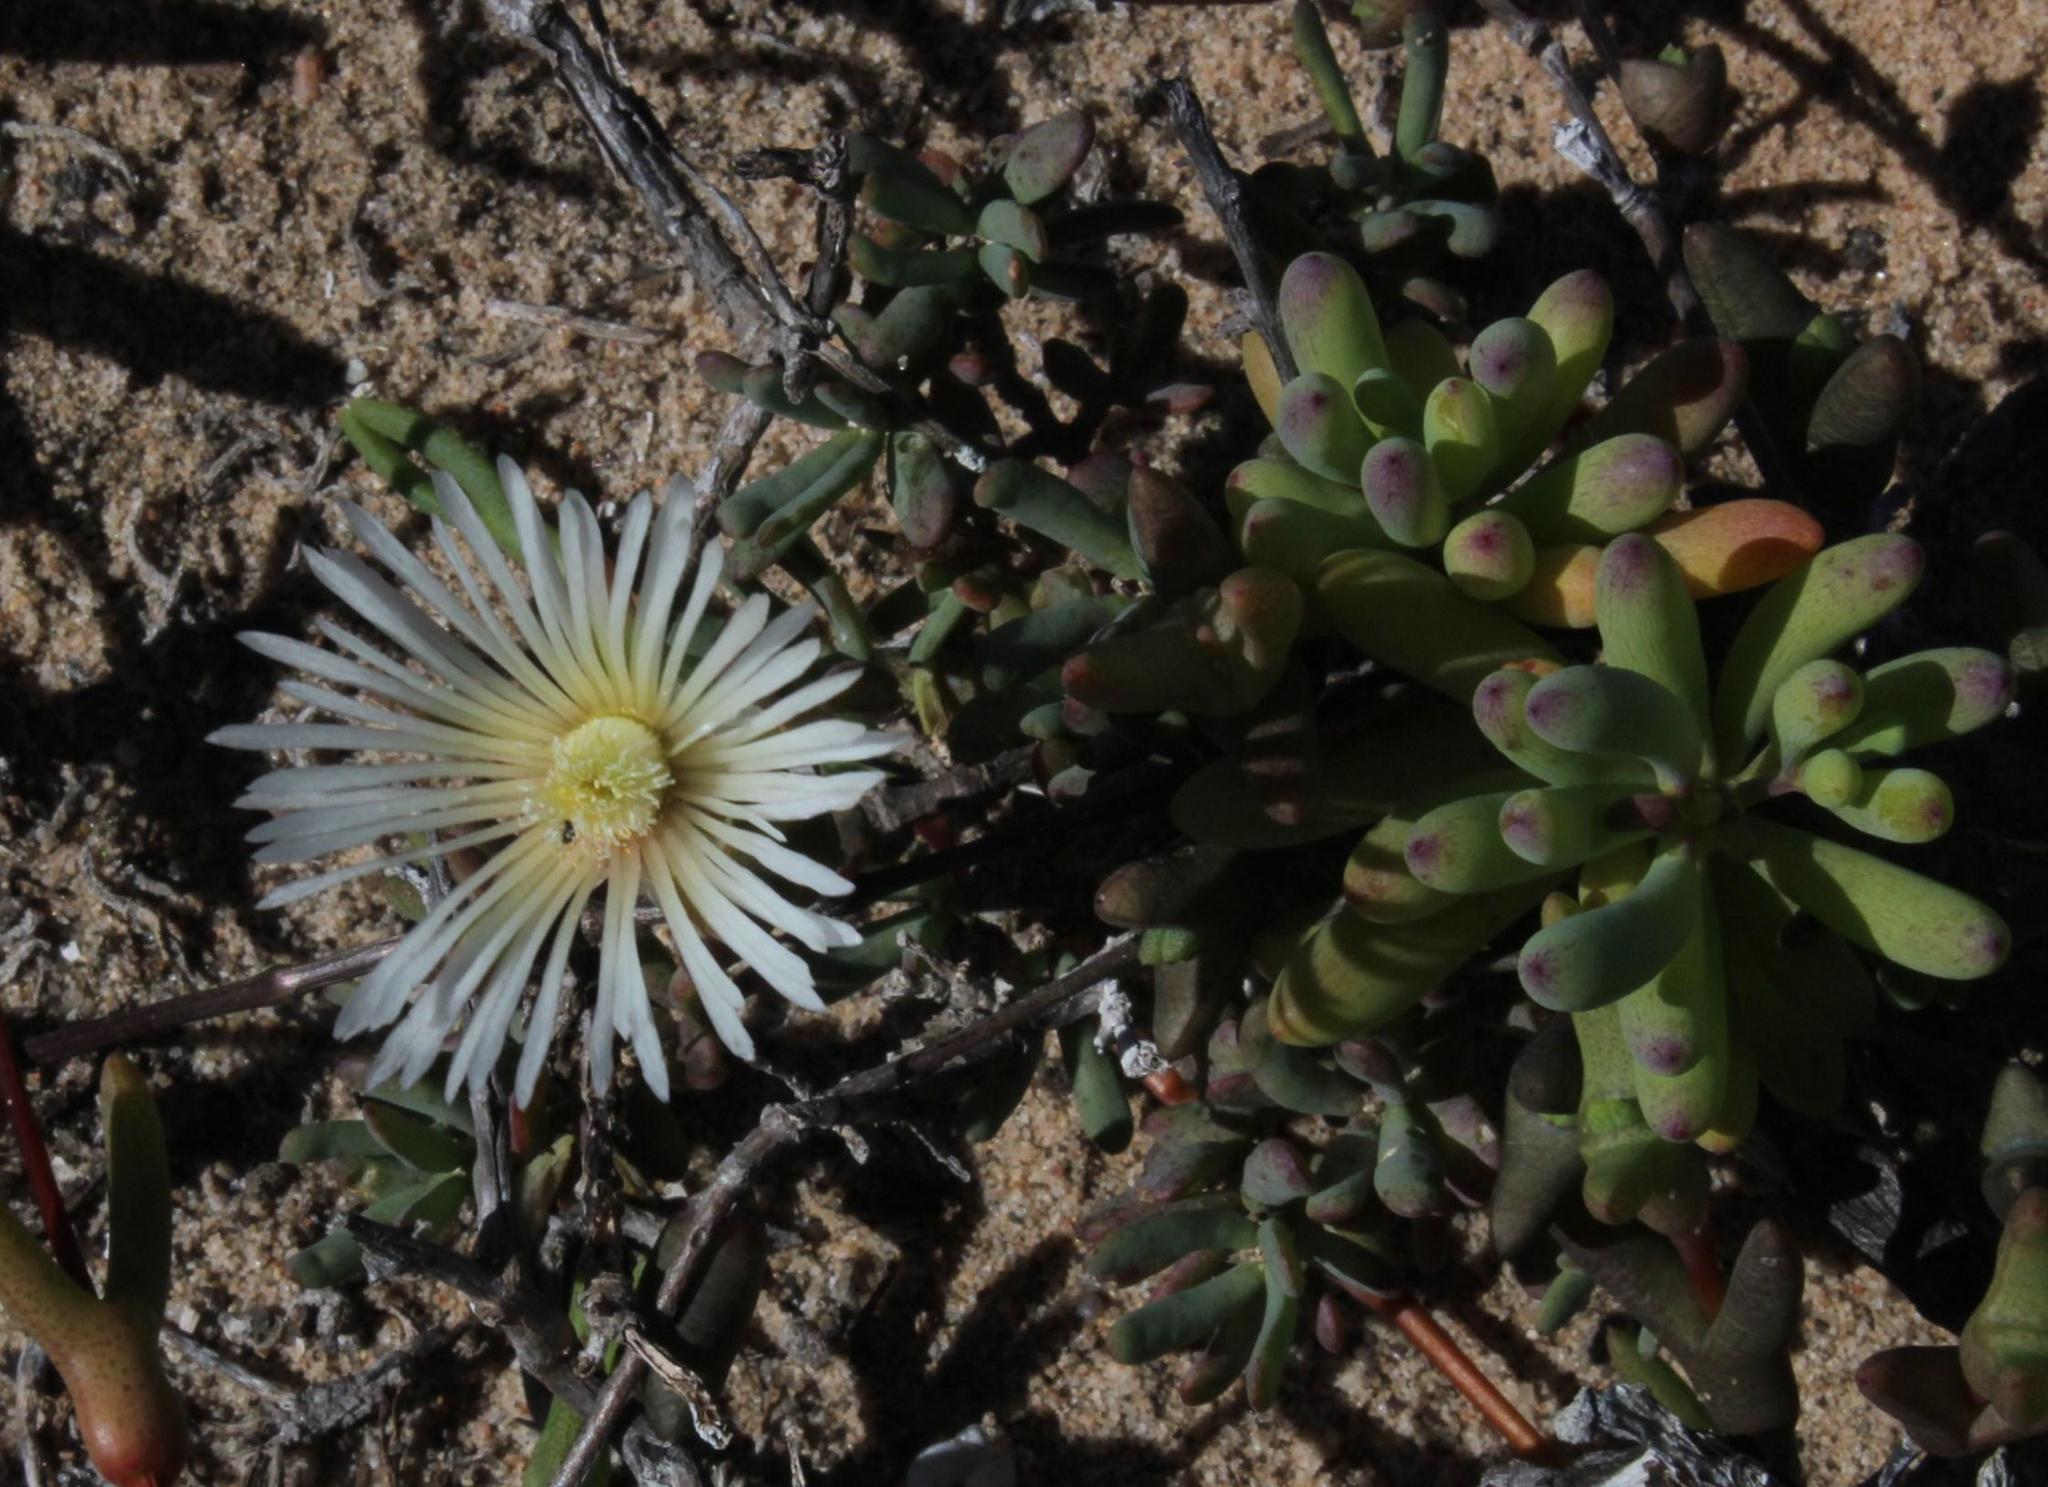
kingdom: Plantae
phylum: Tracheophyta
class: Magnoliopsida
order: Caryophyllales
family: Aizoaceae
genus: Vanzijlia
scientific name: Vanzijlia annulata
